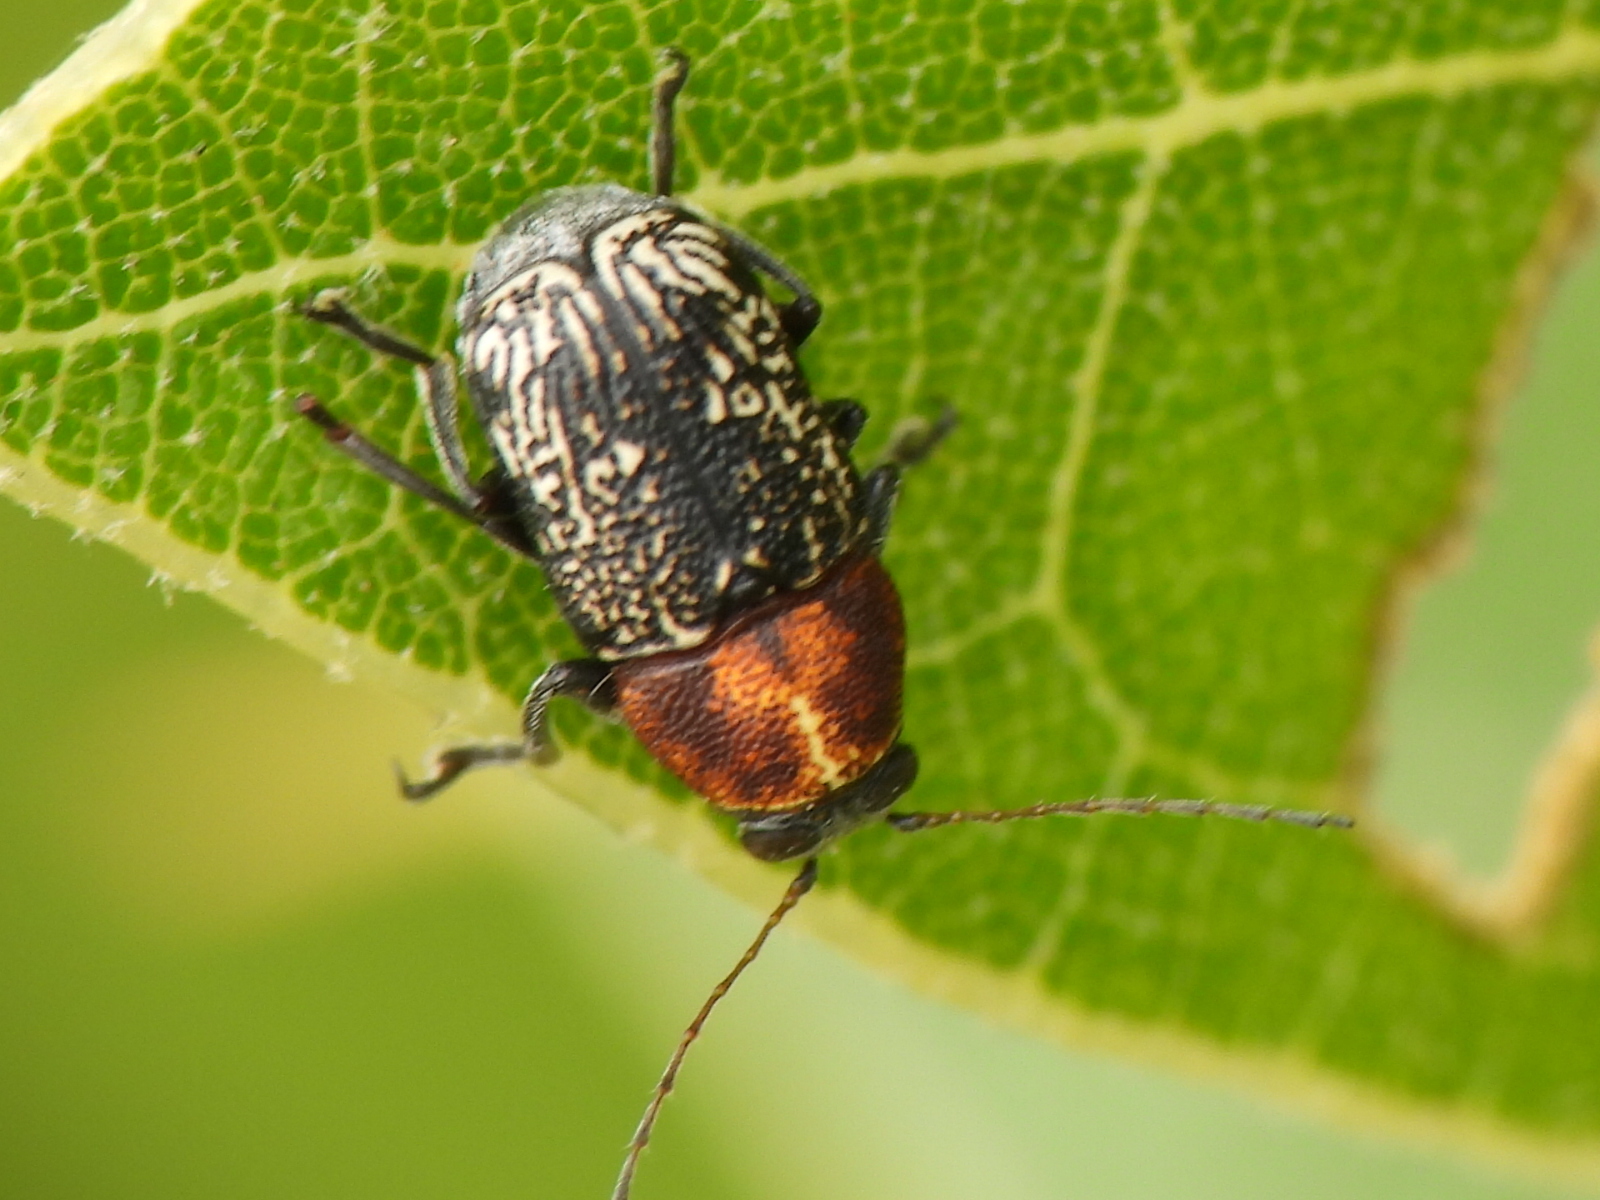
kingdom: Animalia
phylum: Arthropoda
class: Insecta
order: Coleoptera
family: Chrysomelidae
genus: Pachybrachis
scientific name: Pachybrachis luridus
